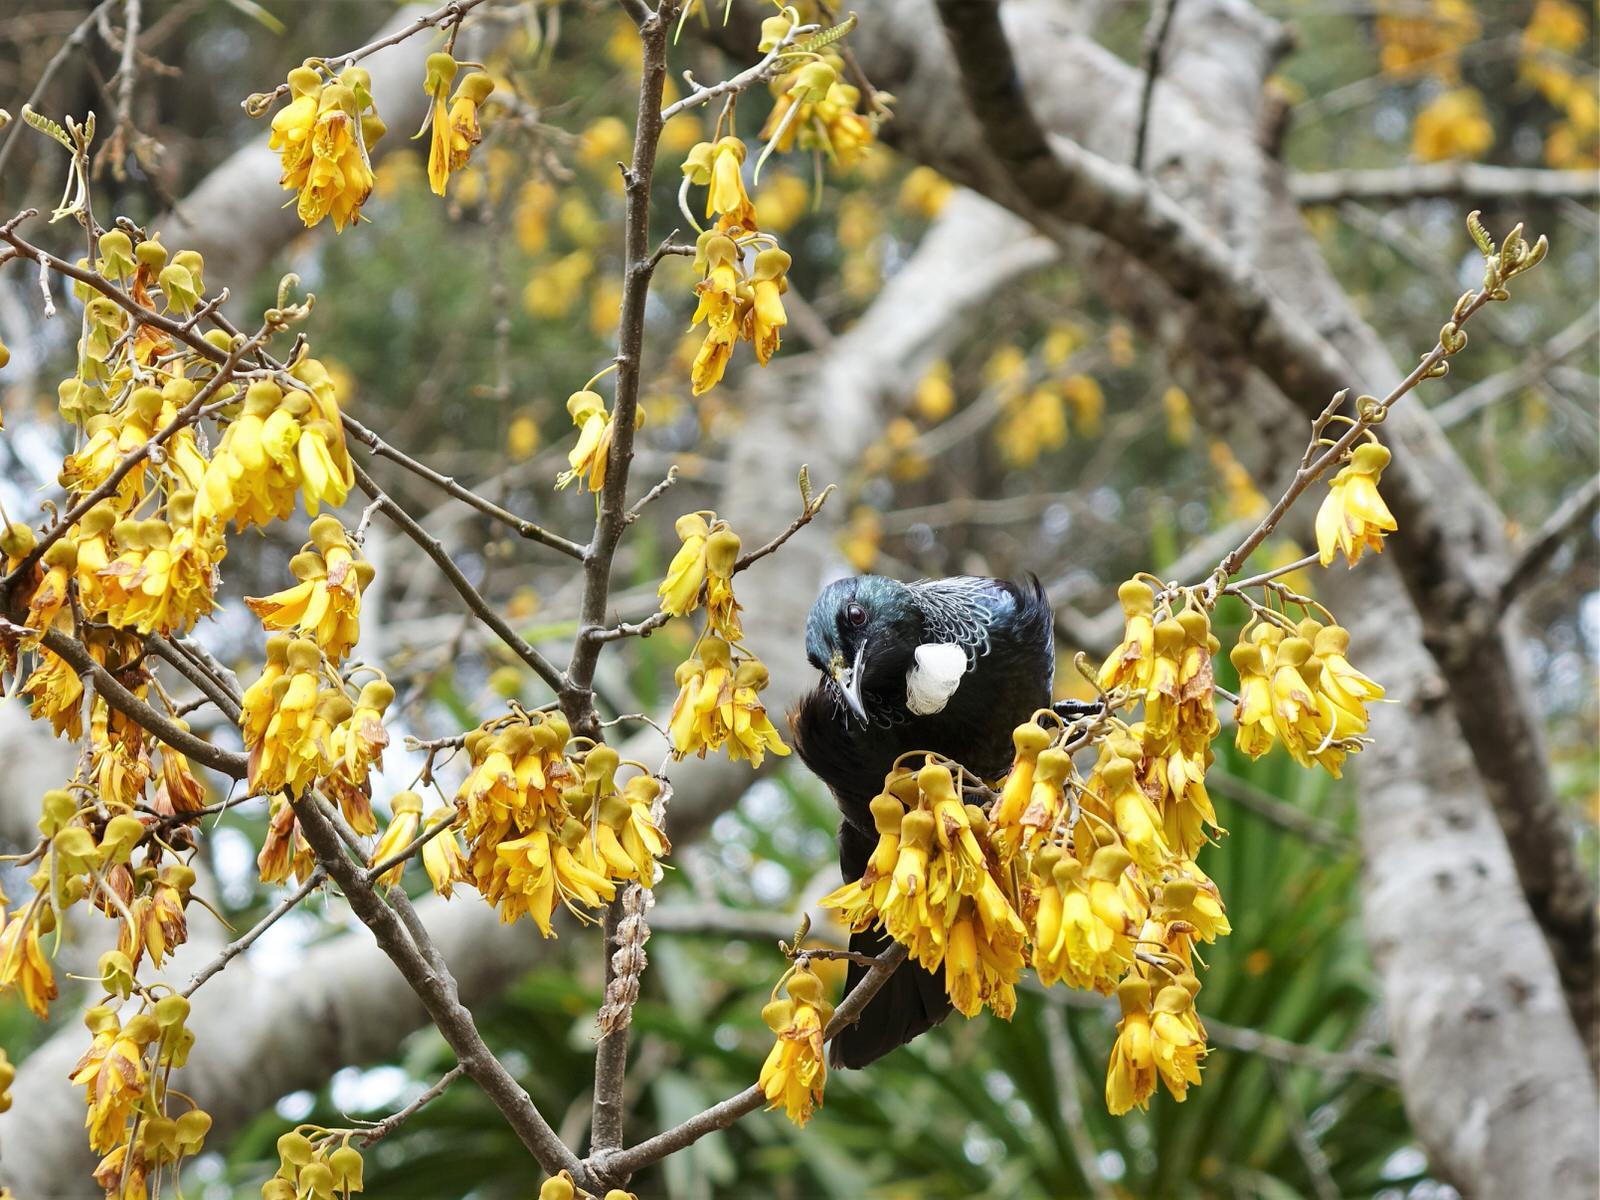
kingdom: Animalia
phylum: Chordata
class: Aves
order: Passeriformes
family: Meliphagidae
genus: Prosthemadera
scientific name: Prosthemadera novaeseelandiae
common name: Tui
